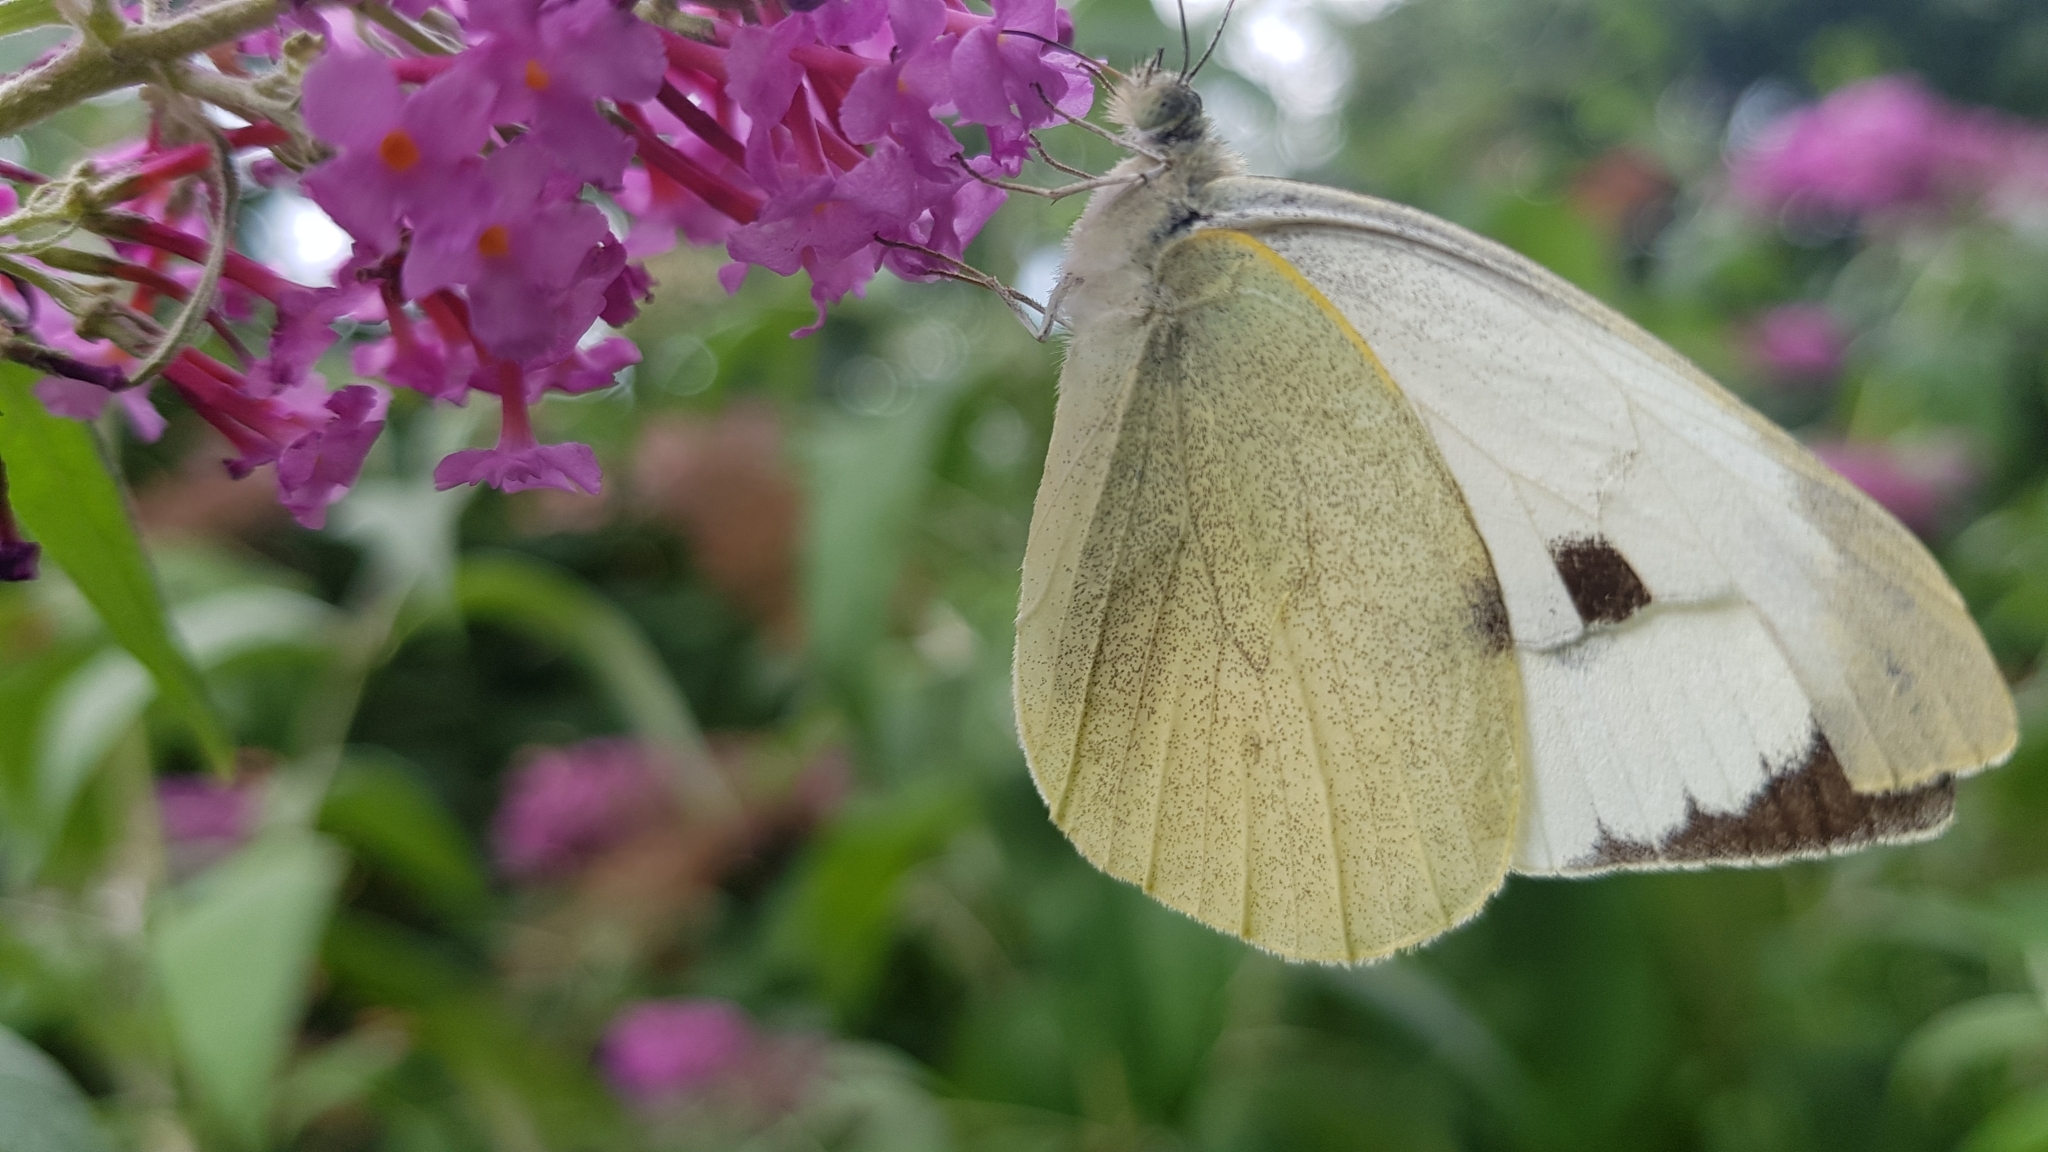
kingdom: Animalia
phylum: Arthropoda
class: Insecta
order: Lepidoptera
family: Pieridae
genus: Pieris
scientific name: Pieris brassicae
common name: Large white
